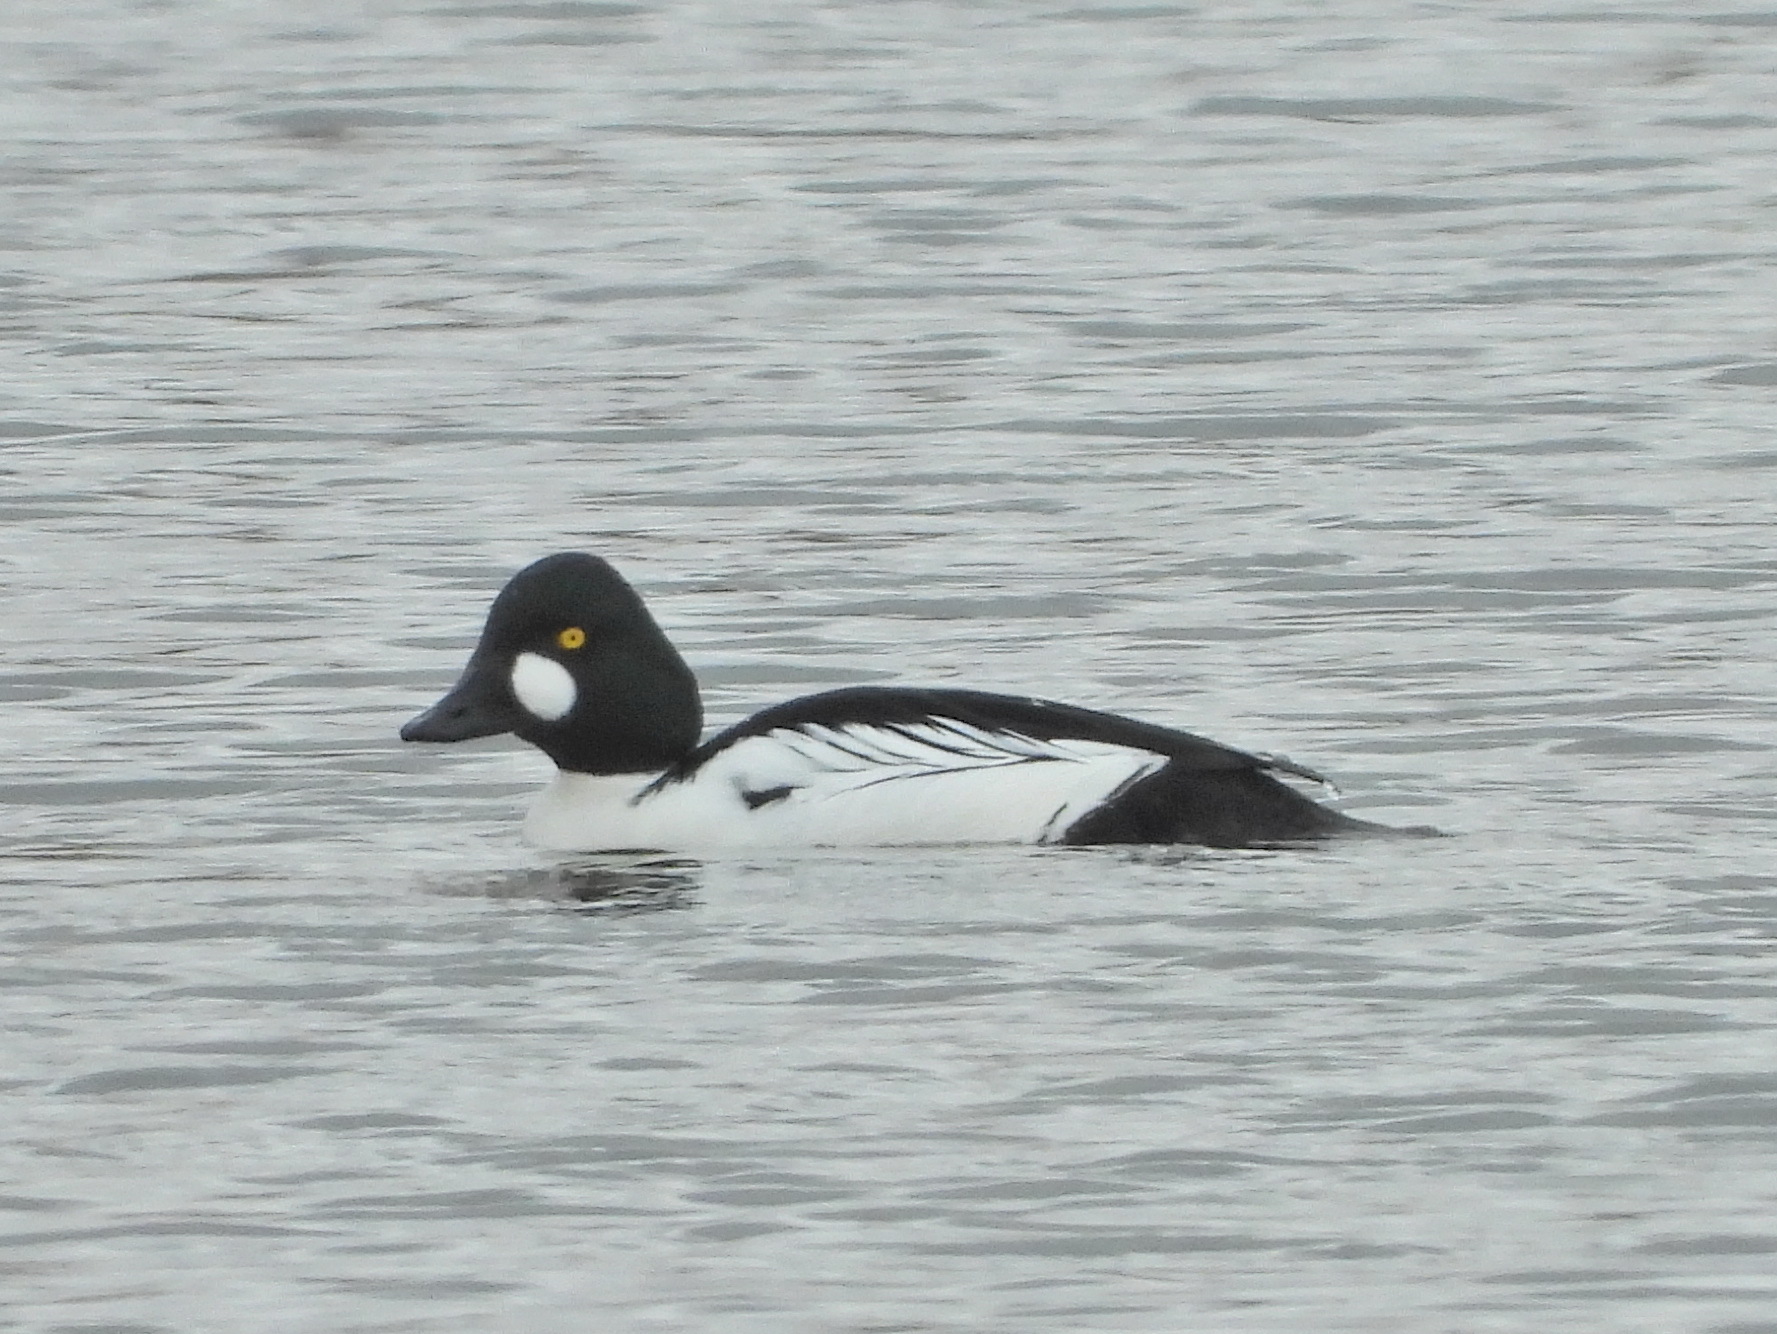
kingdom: Animalia
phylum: Chordata
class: Aves
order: Anseriformes
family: Anatidae
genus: Bucephala
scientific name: Bucephala clangula
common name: Common goldeneye
